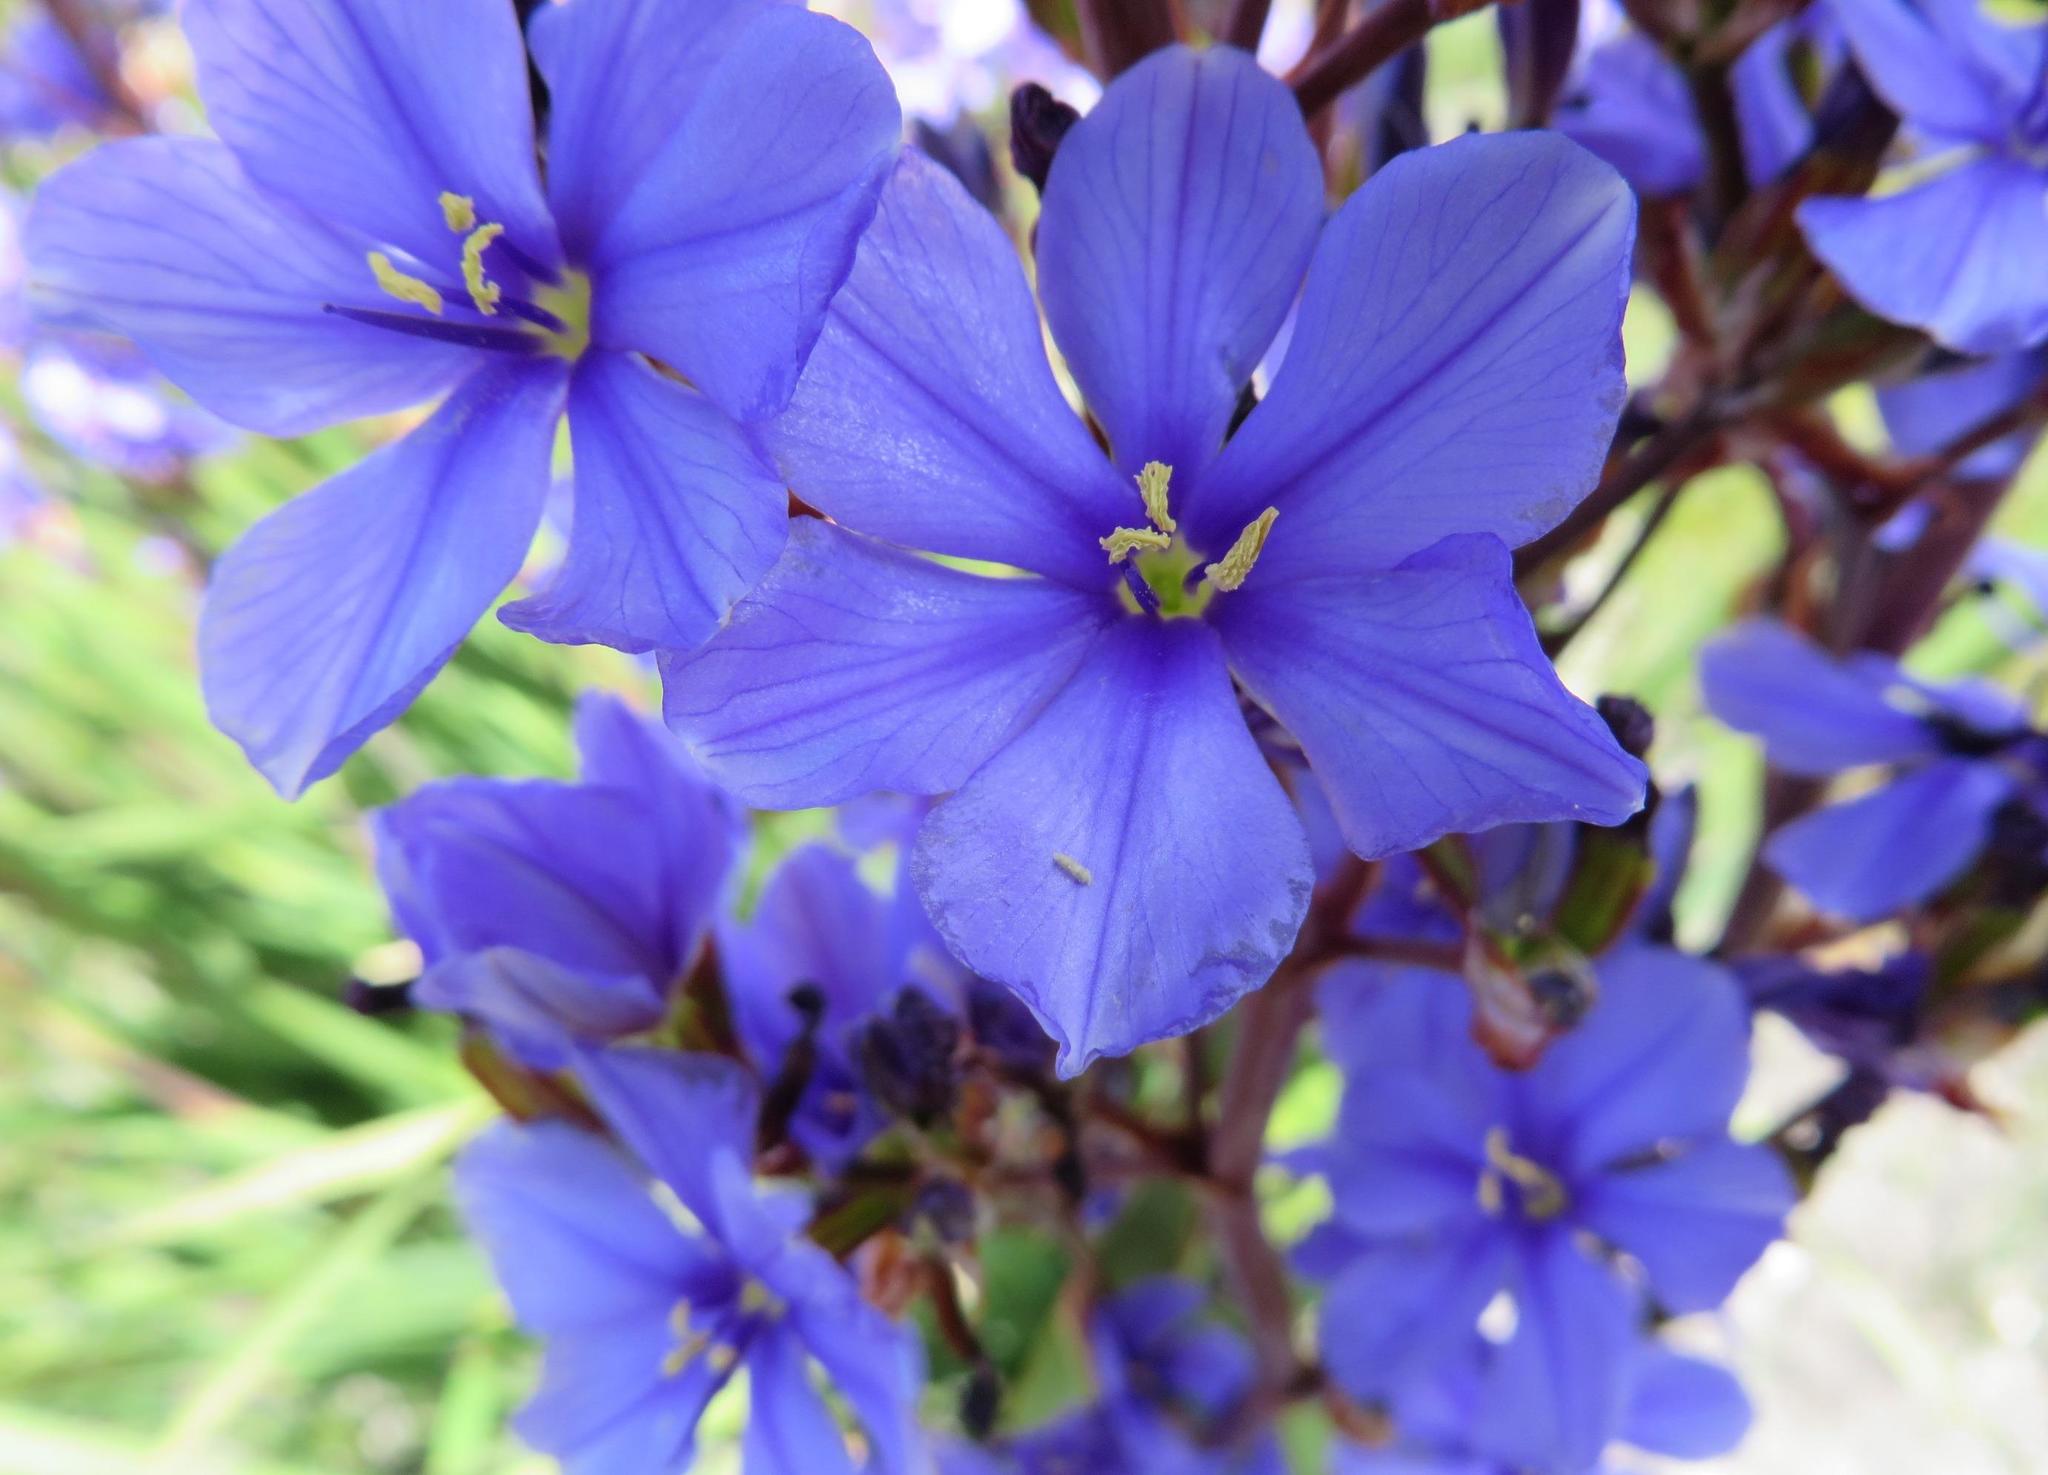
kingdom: Plantae
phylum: Tracheophyta
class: Liliopsida
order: Asparagales
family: Iridaceae
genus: Aristea
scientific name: Aristea bakeri
